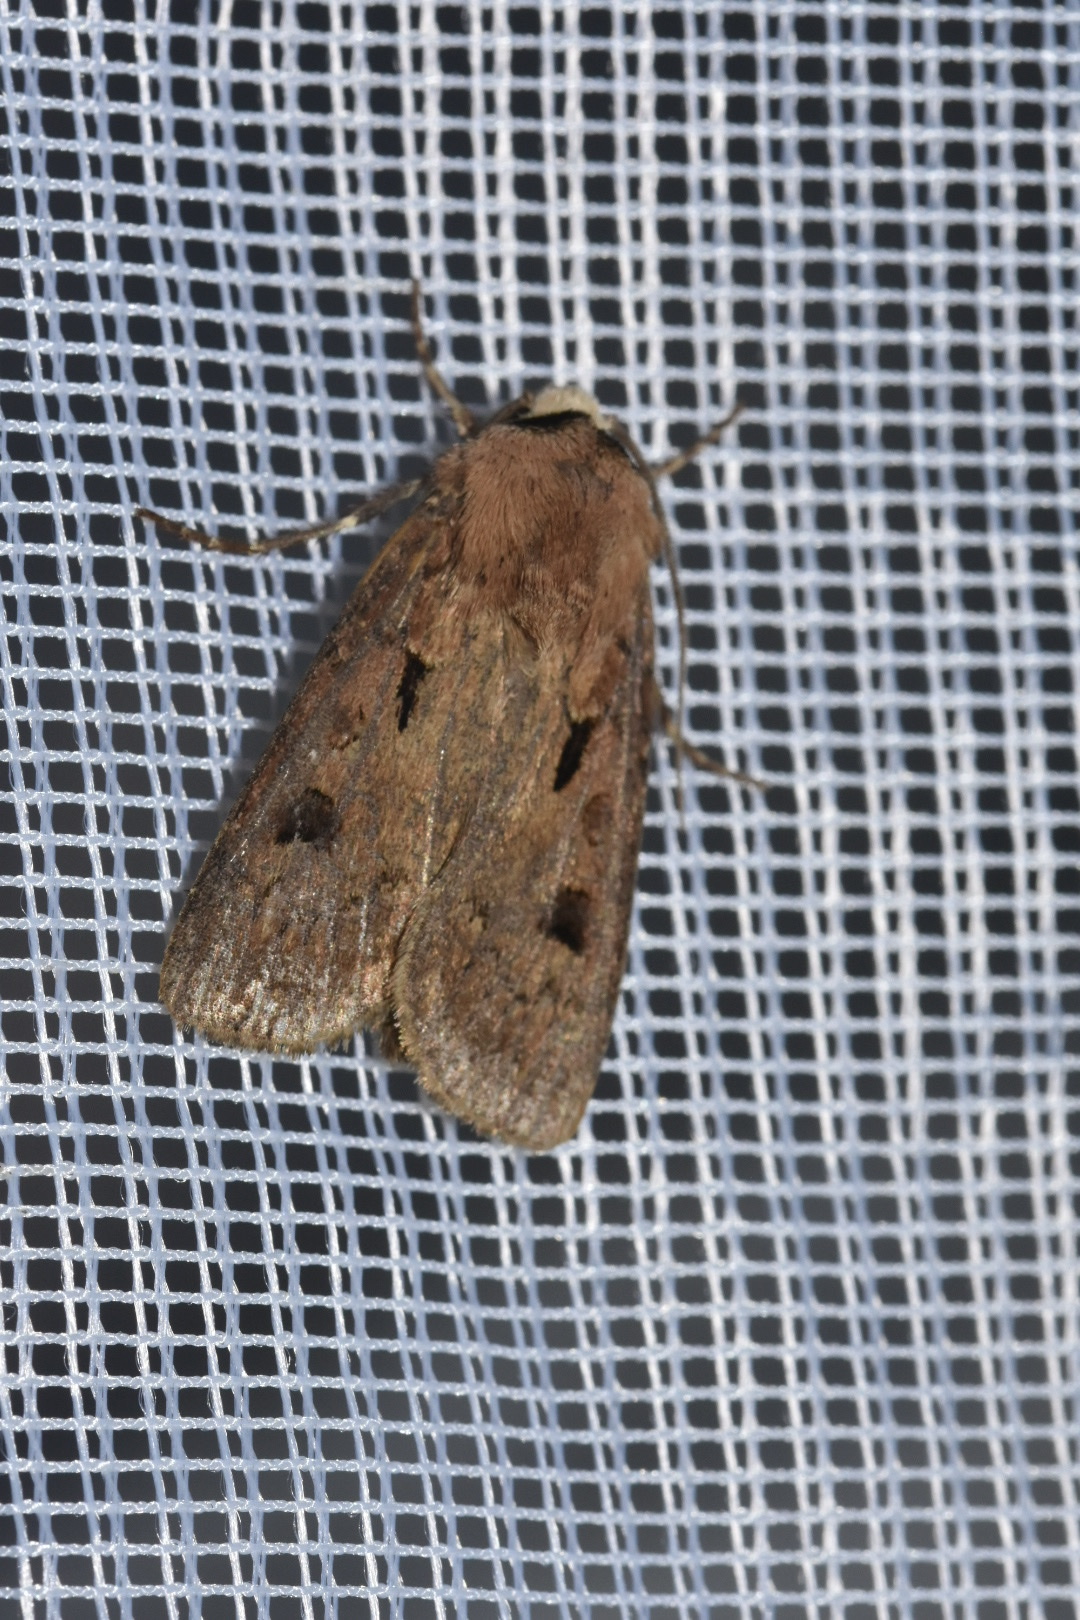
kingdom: Animalia
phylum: Arthropoda
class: Insecta
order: Lepidoptera
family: Noctuidae
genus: Agrotis
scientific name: Agrotis exclamationis
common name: Heart and dart
